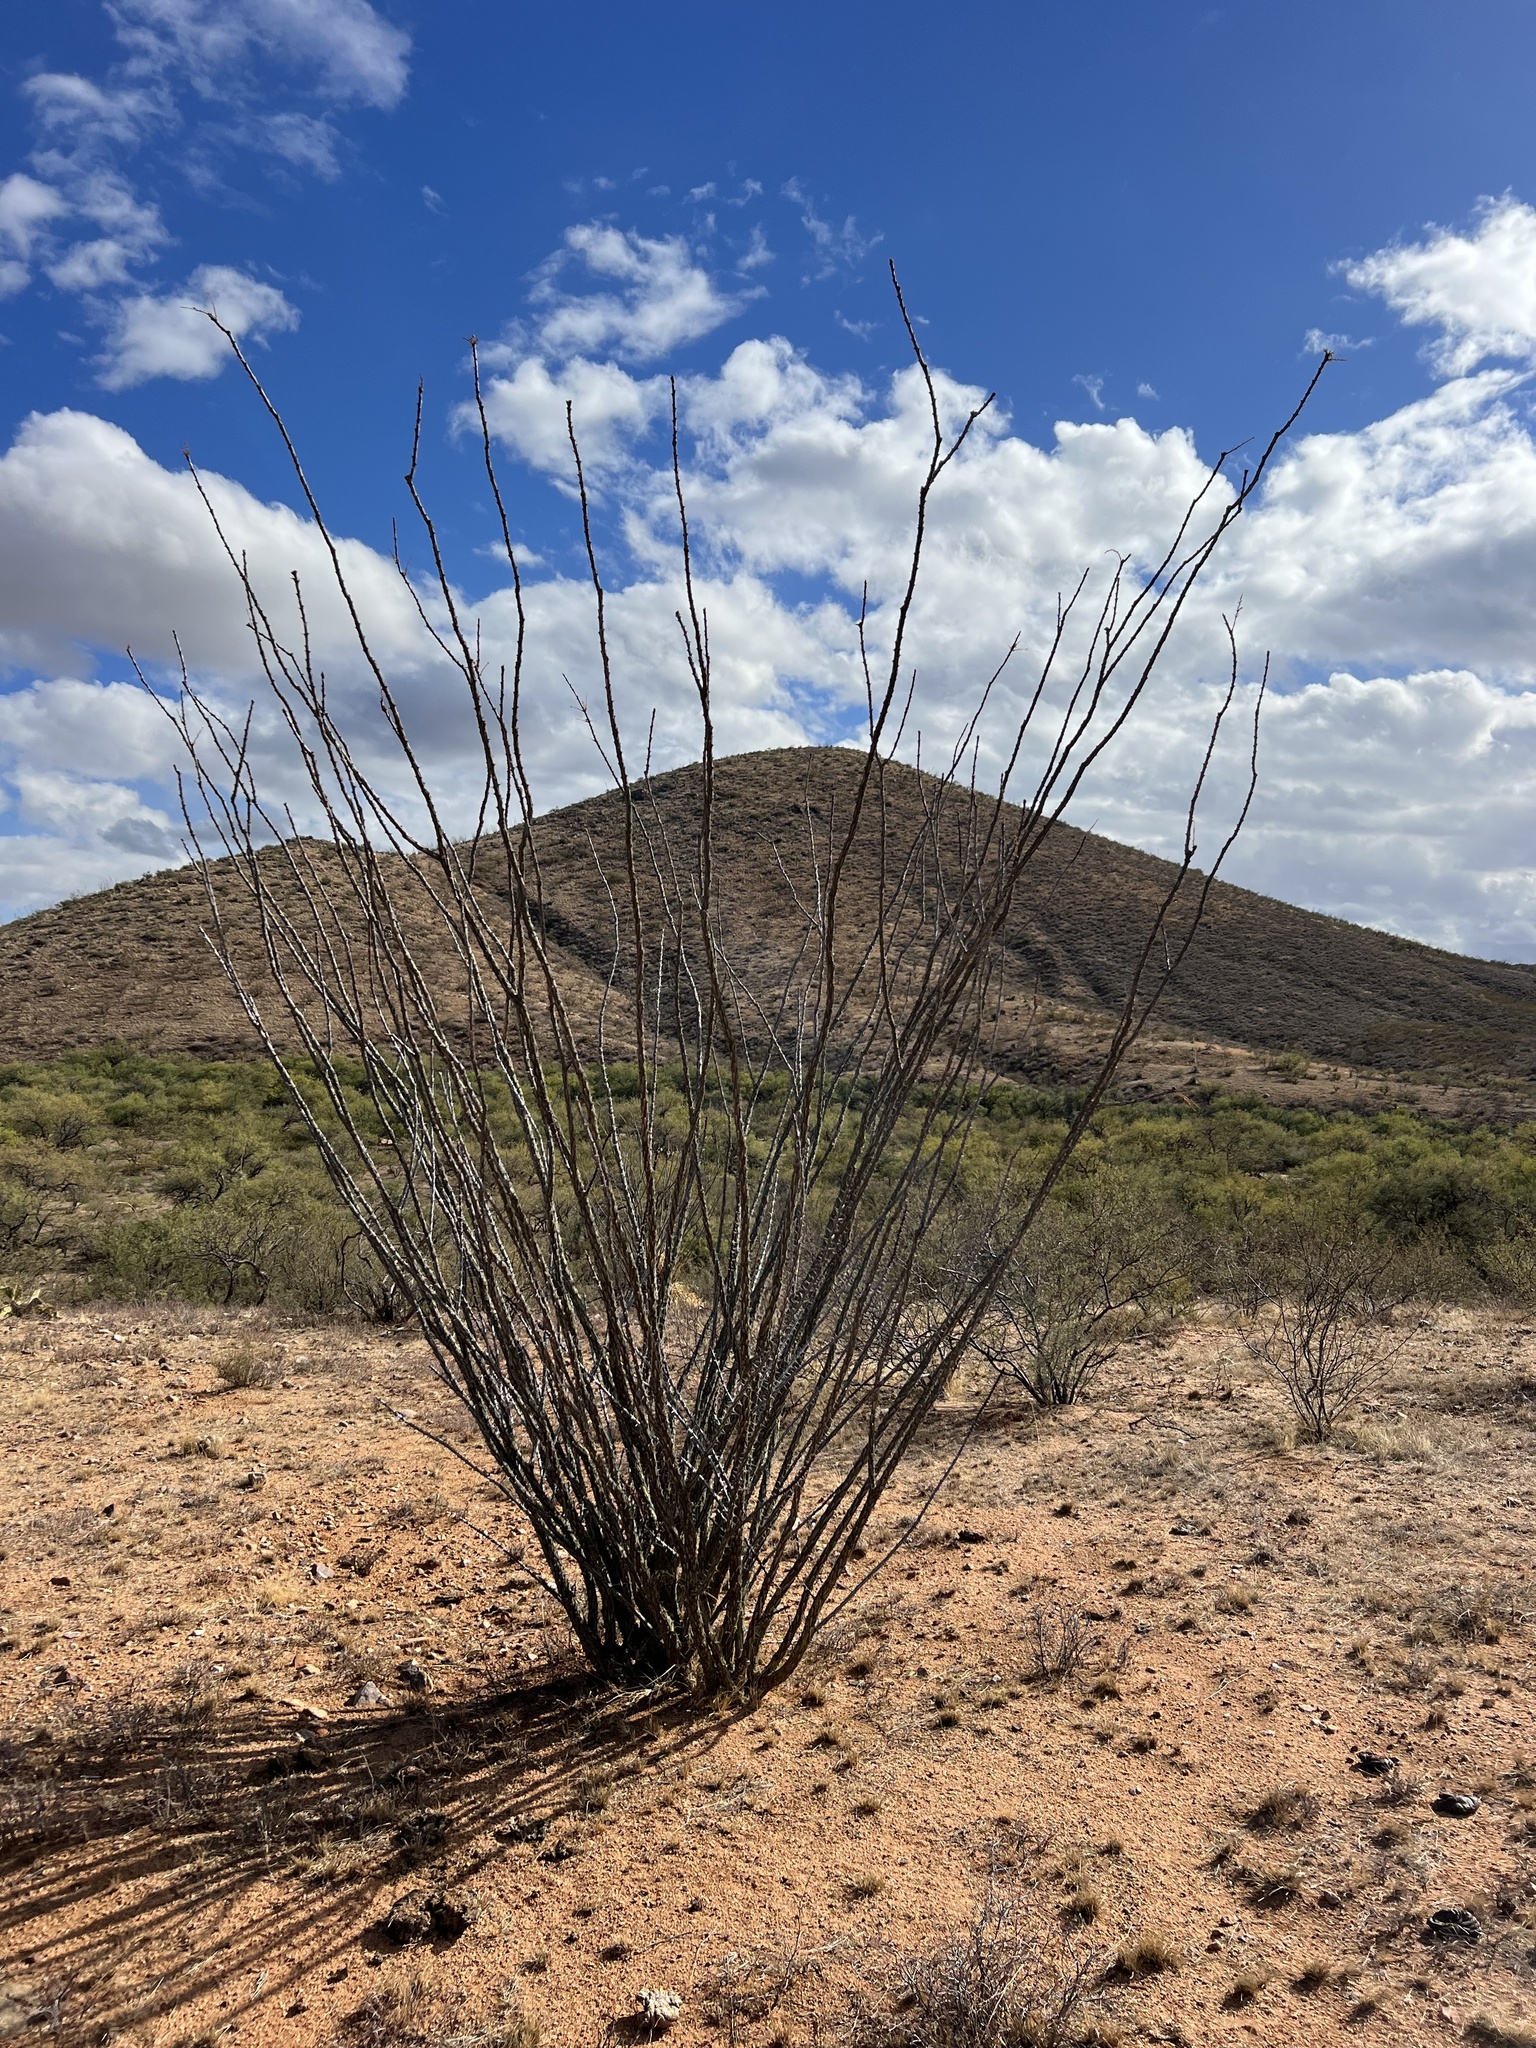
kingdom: Plantae
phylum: Tracheophyta
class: Magnoliopsida
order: Ericales
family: Fouquieriaceae
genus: Fouquieria
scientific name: Fouquieria splendens
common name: Vine-cactus
